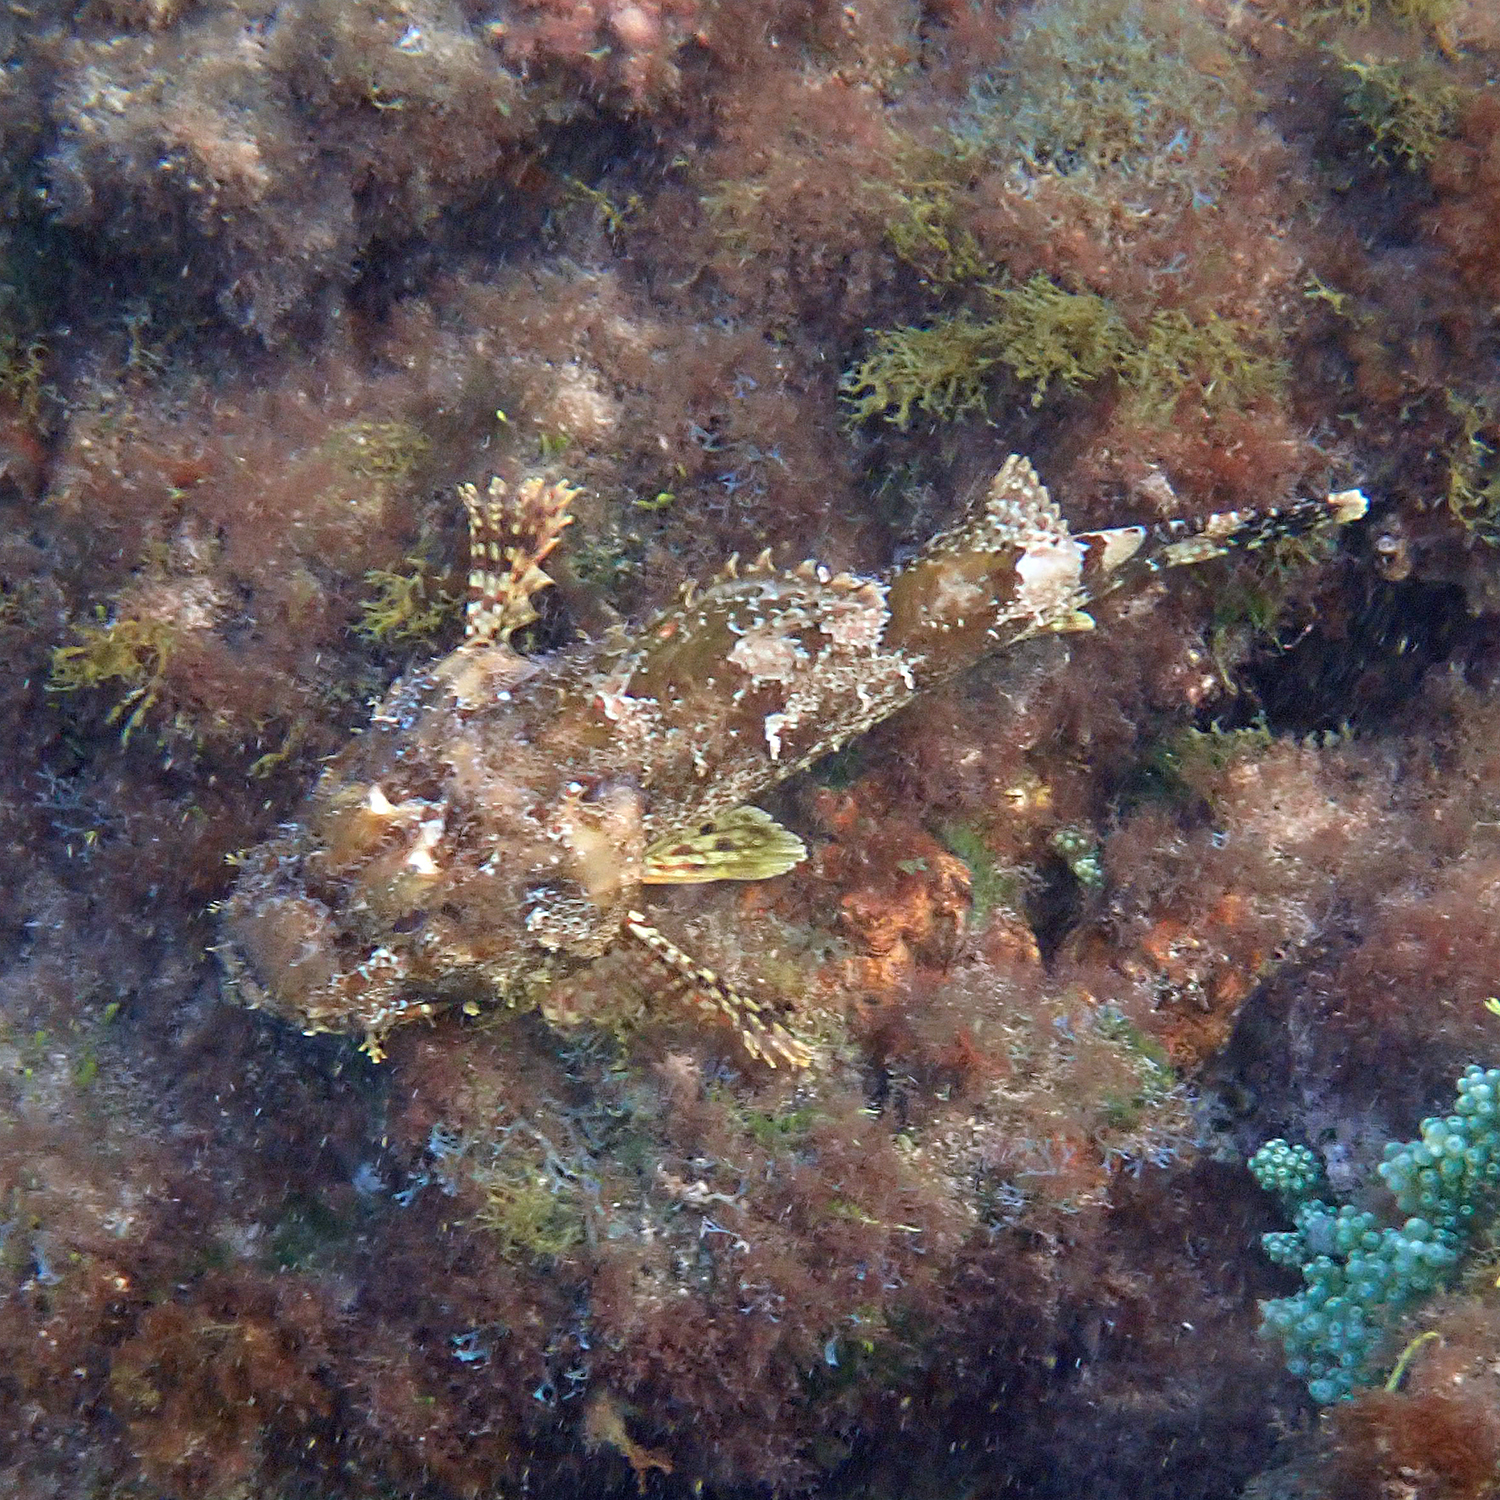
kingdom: Animalia
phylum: Chordata
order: Scorpaeniformes
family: Scorpaenidae
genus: Scorpaena
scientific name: Scorpaena cardinalis
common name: Cardinal scorpionfish
